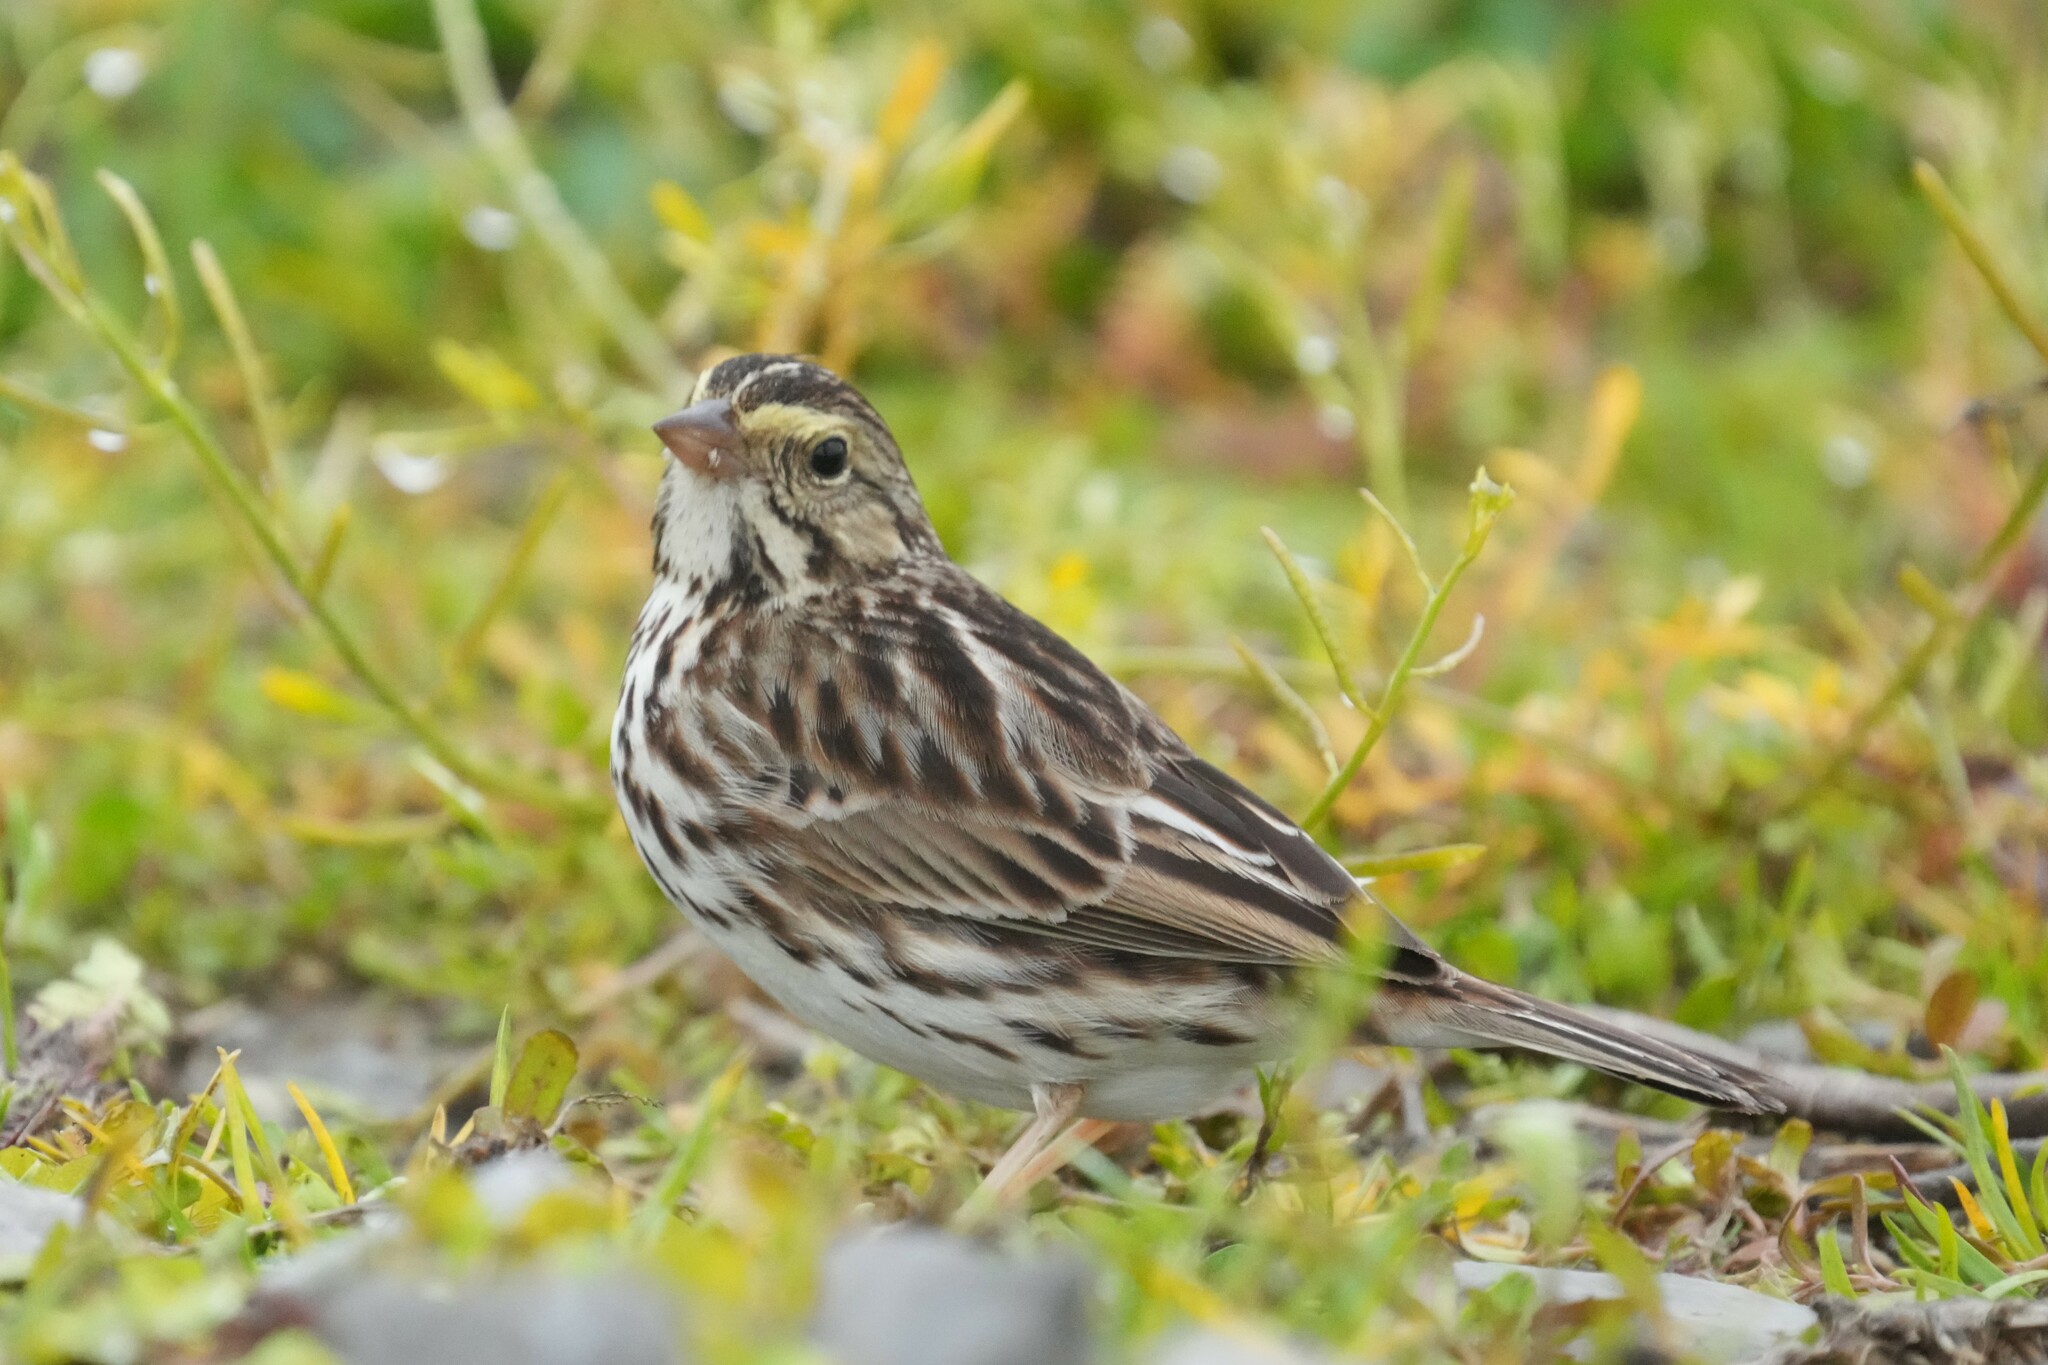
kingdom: Animalia
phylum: Chordata
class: Aves
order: Passeriformes
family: Passerellidae
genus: Passerculus
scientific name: Passerculus sandwichensis
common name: Savannah sparrow
